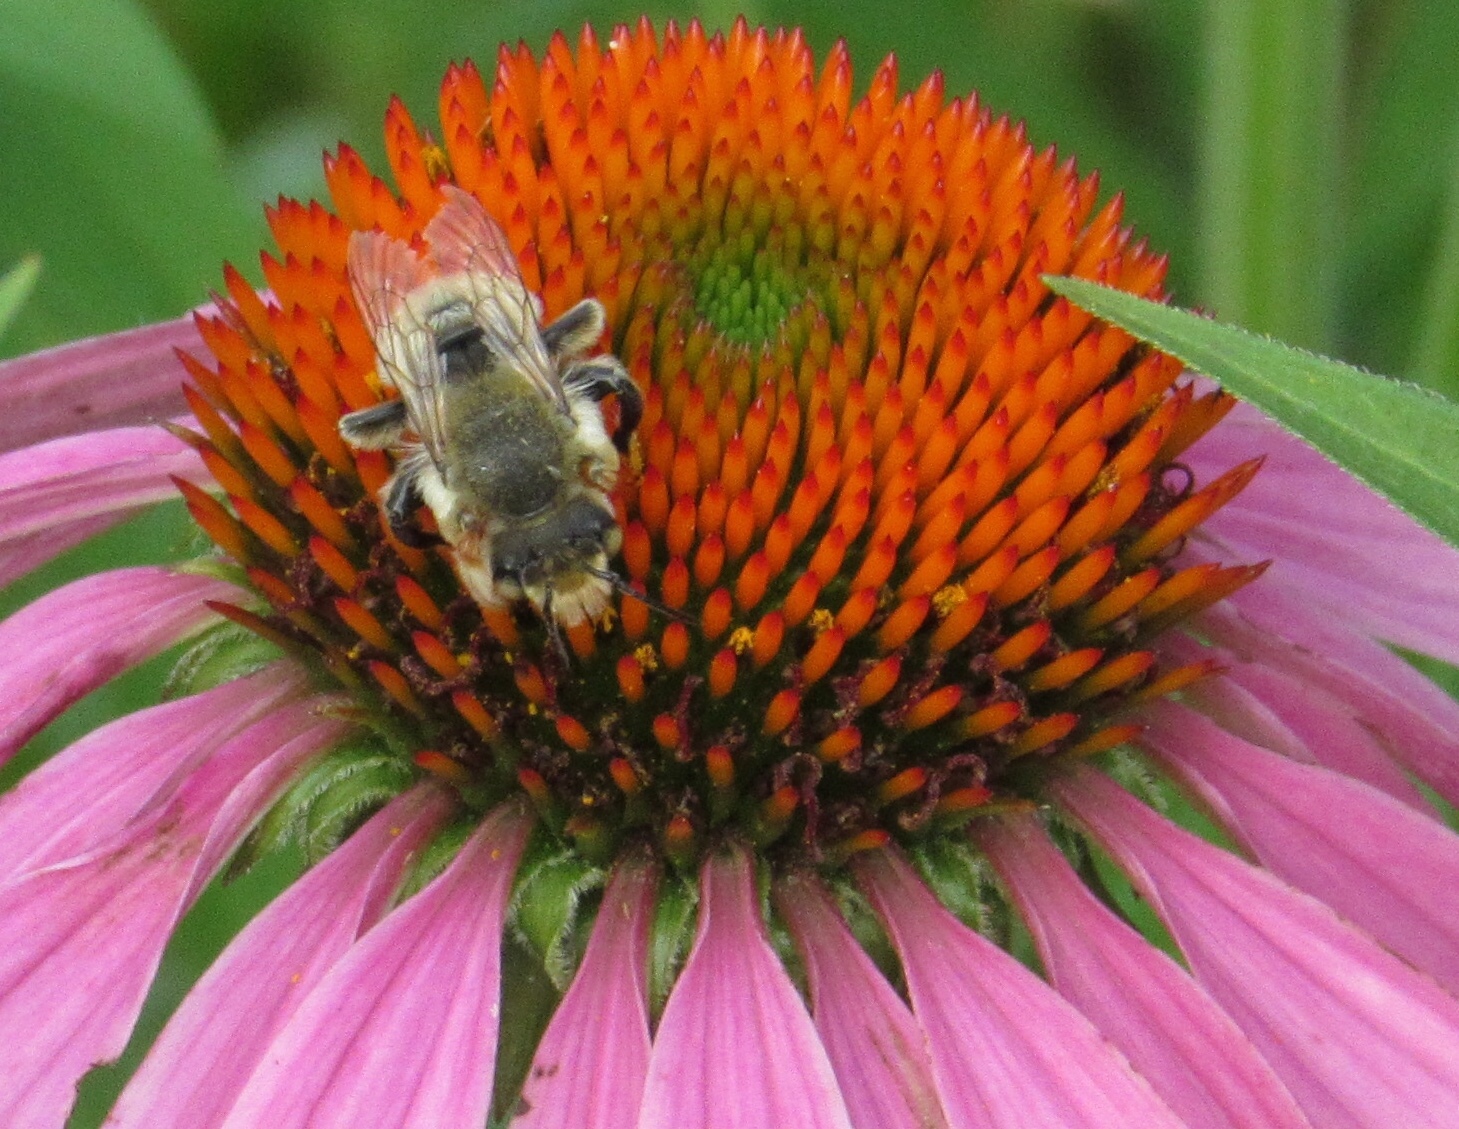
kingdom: Animalia
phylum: Arthropoda
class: Insecta
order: Hymenoptera
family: Megachilidae
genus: Megachile
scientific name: Megachile latimanus
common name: Leafcutting bee
